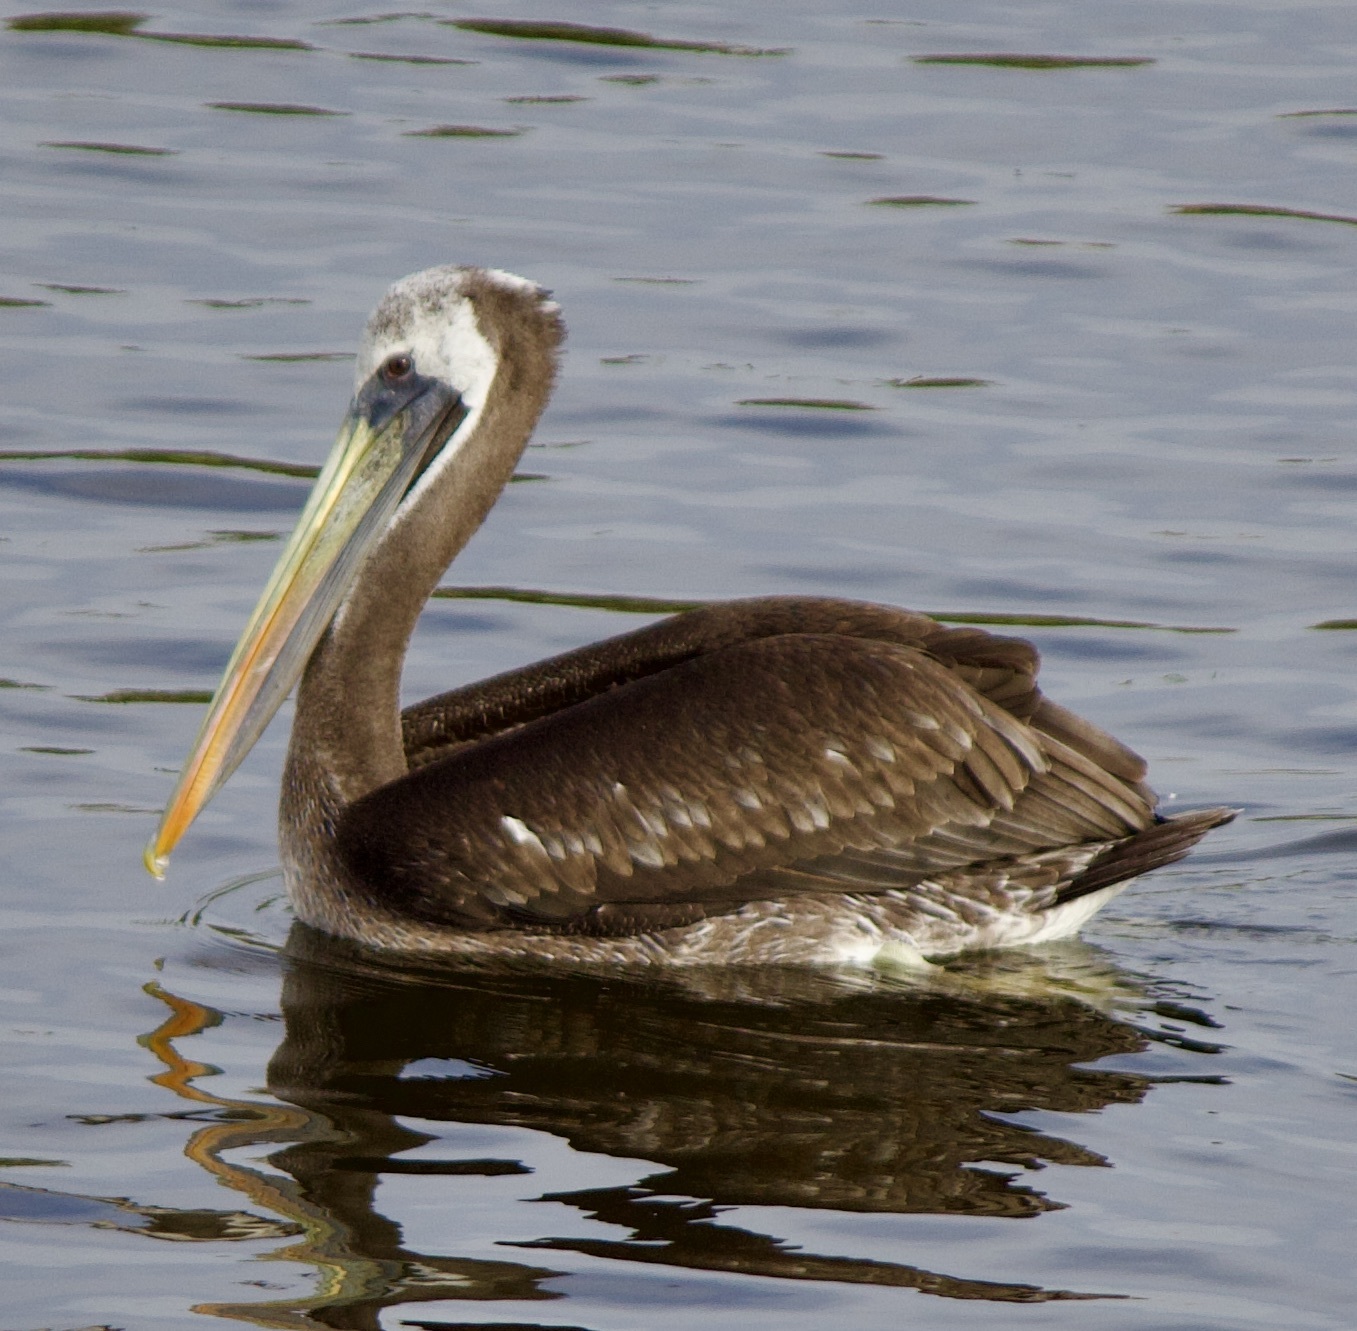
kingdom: Animalia
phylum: Chordata
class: Aves
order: Pelecaniformes
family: Pelecanidae
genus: Pelecanus
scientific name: Pelecanus thagus
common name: Peruvian pelican
